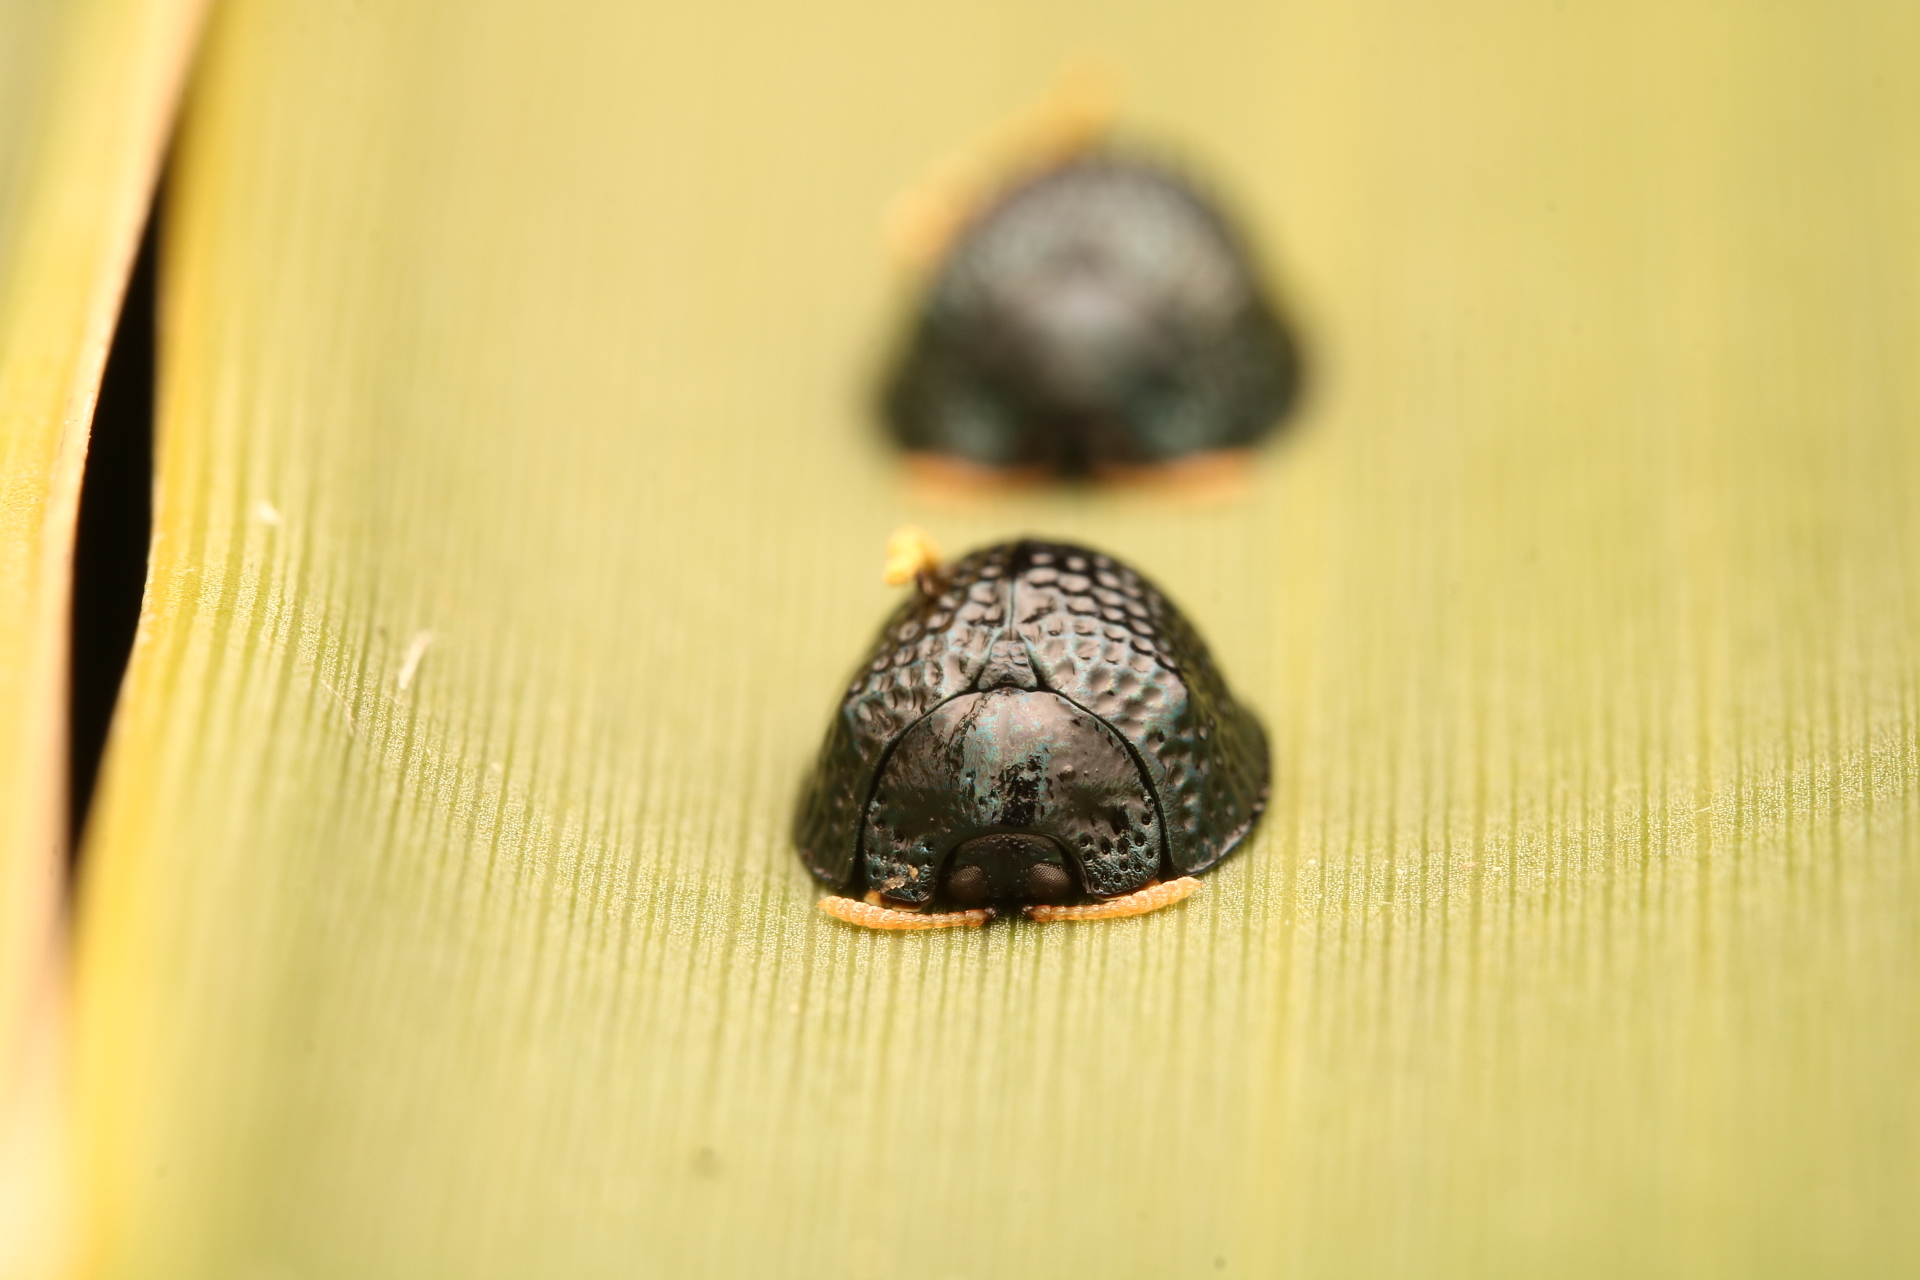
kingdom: Animalia
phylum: Arthropoda
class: Insecta
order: Coleoptera
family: Chrysomelidae
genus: Hemisphaerota
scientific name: Hemisphaerota cyanea
